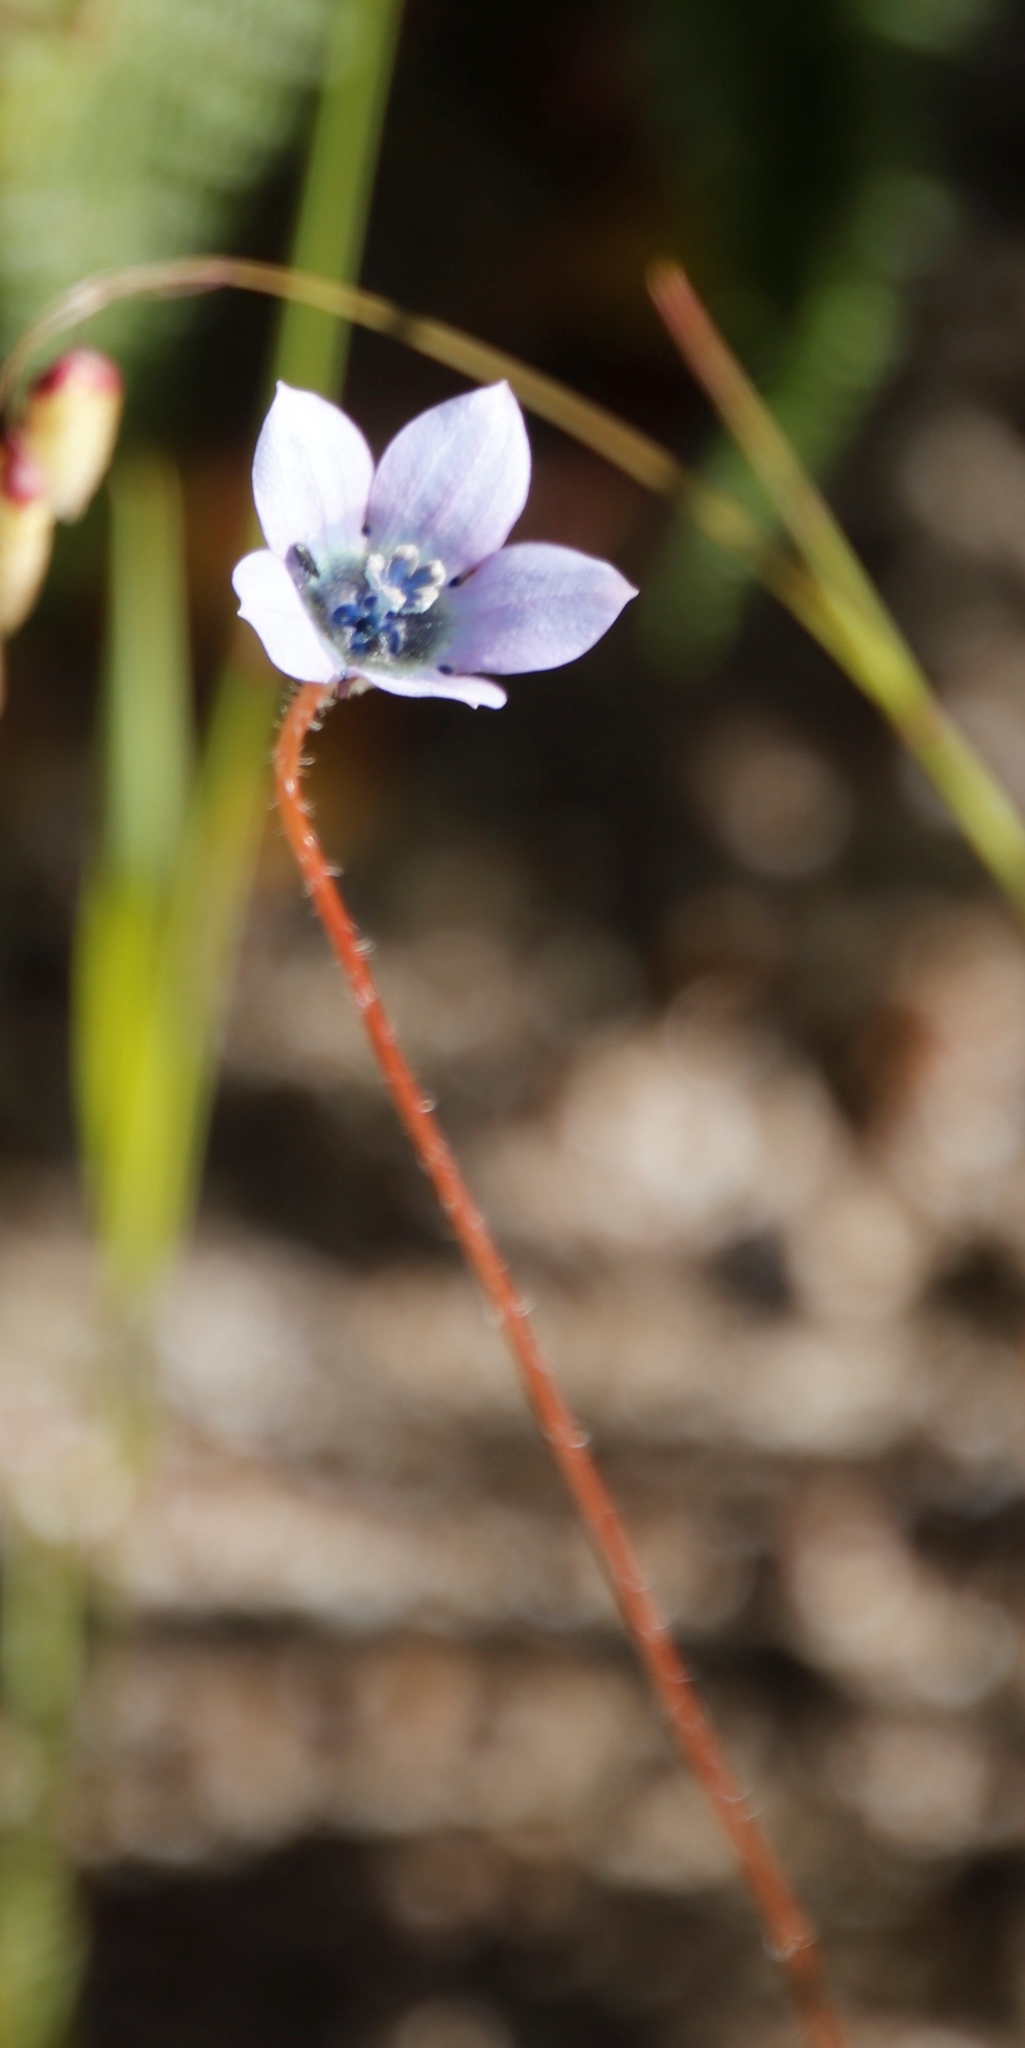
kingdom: Plantae
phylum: Tracheophyta
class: Magnoliopsida
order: Asterales
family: Campanulaceae
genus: Wahlenbergia
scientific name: Wahlenbergia capensis
